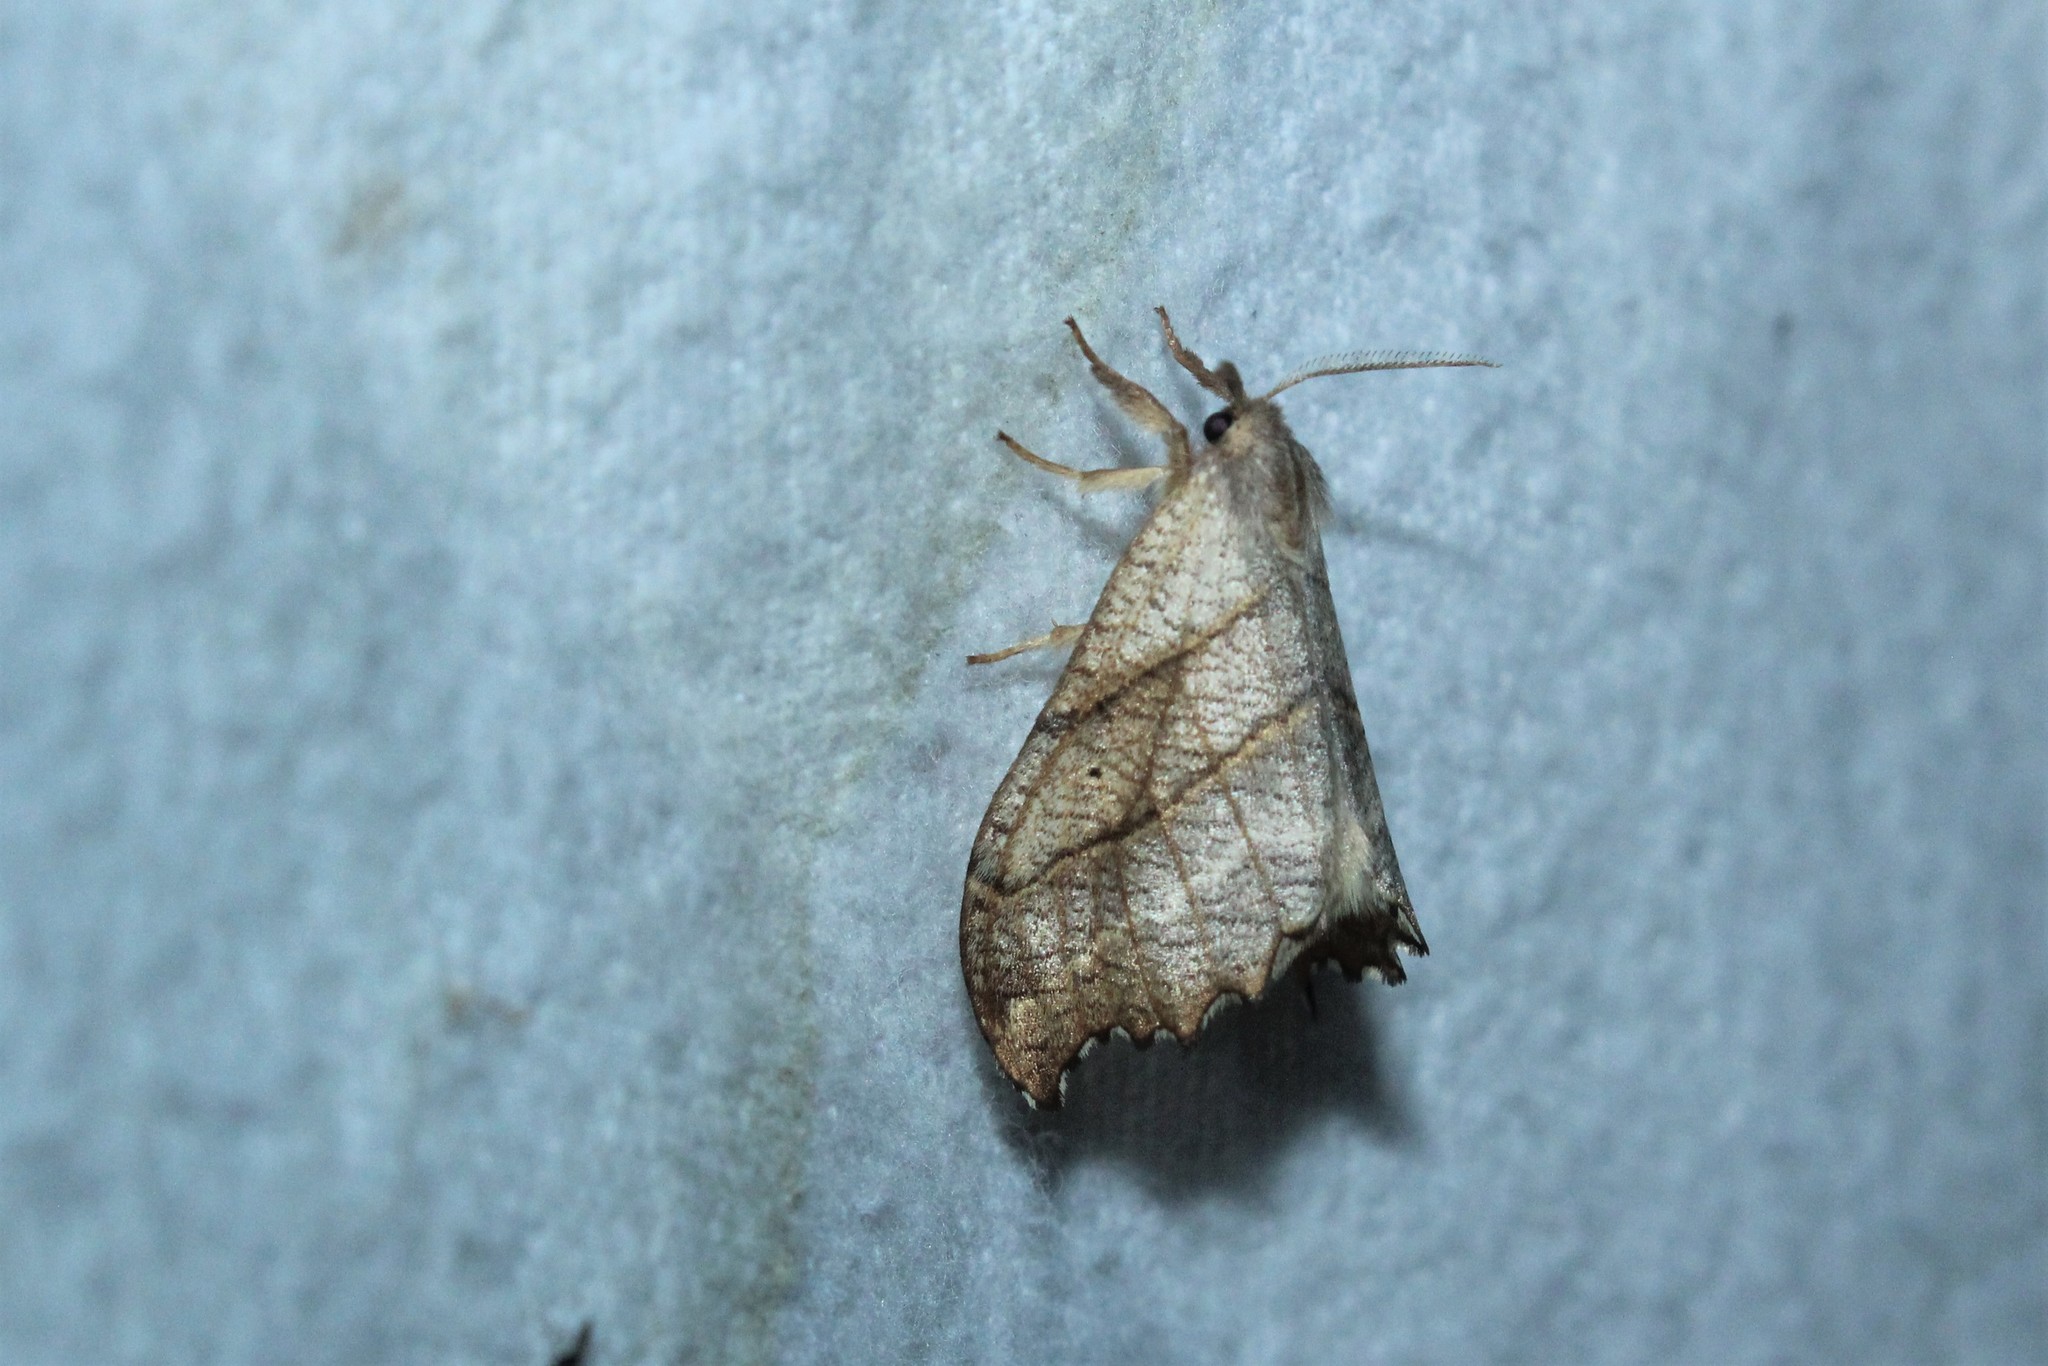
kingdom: Animalia
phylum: Arthropoda
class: Insecta
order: Lepidoptera
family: Drepanidae
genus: Falcaria
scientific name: Falcaria bilineata
